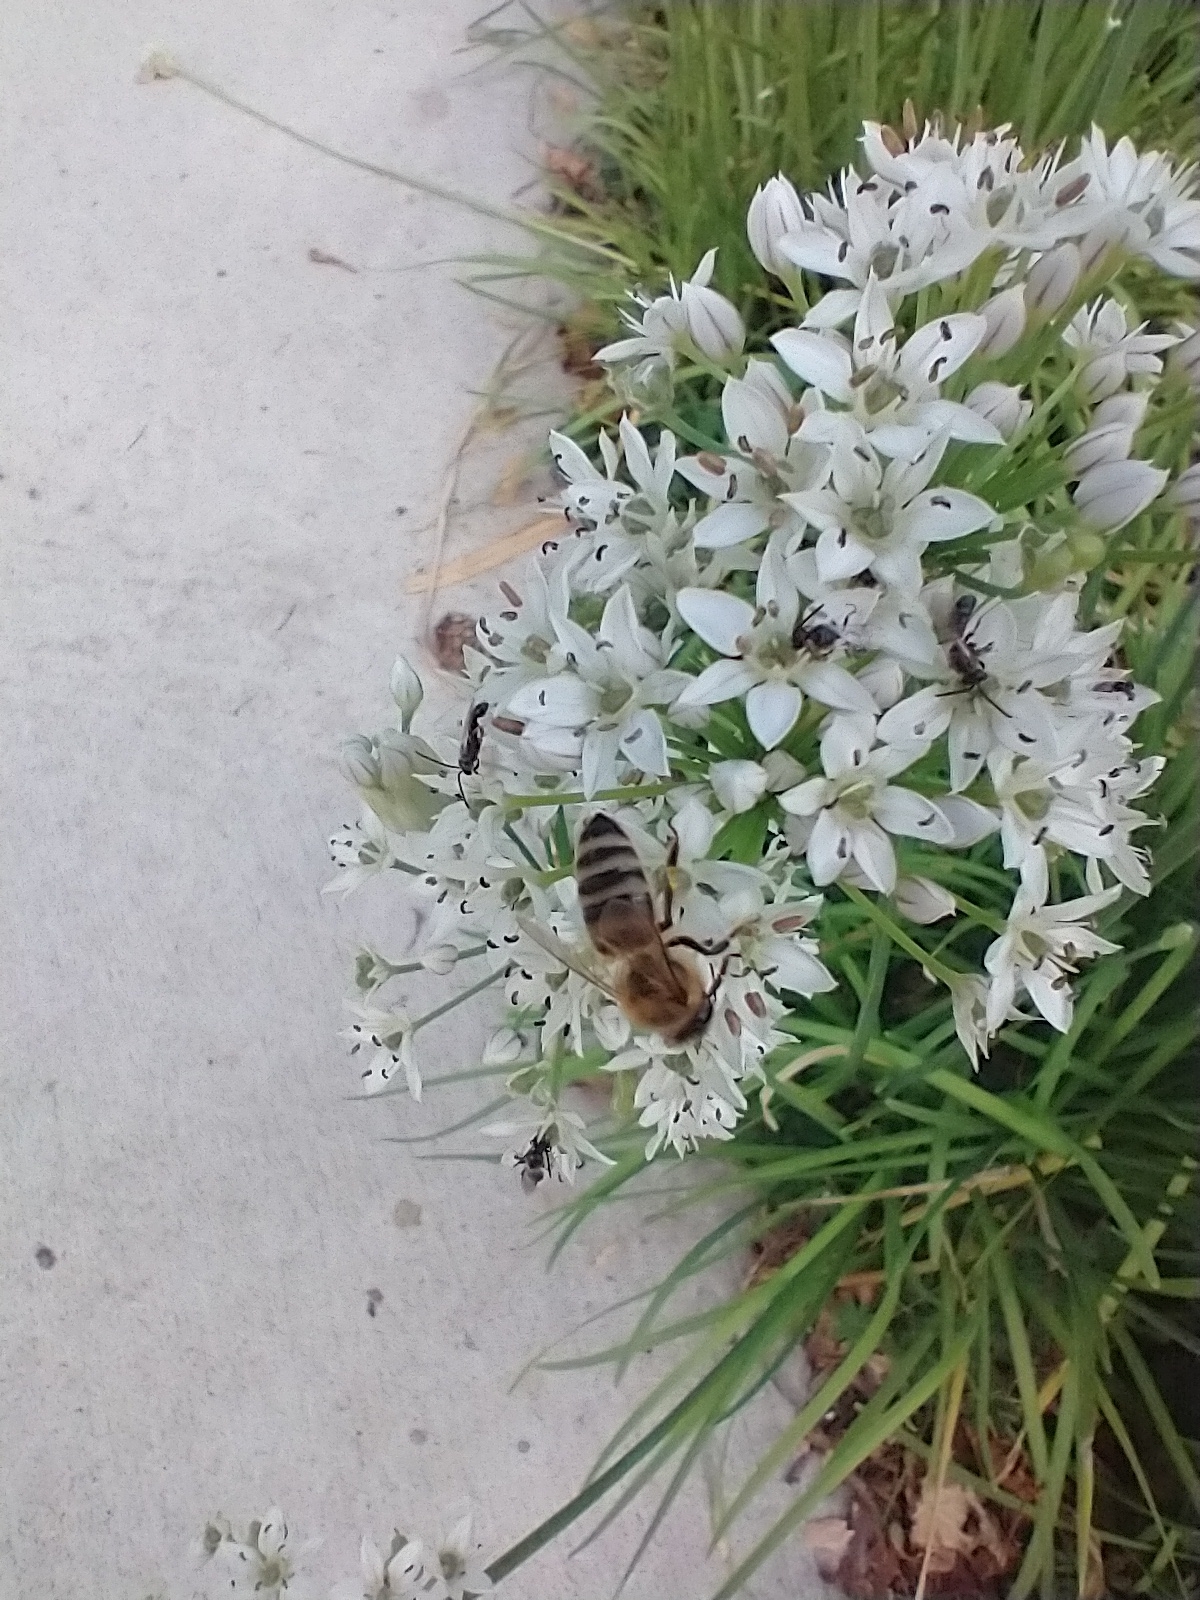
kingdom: Animalia
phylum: Arthropoda
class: Insecta
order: Hymenoptera
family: Apidae
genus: Apis
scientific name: Apis mellifera
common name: Honey bee
